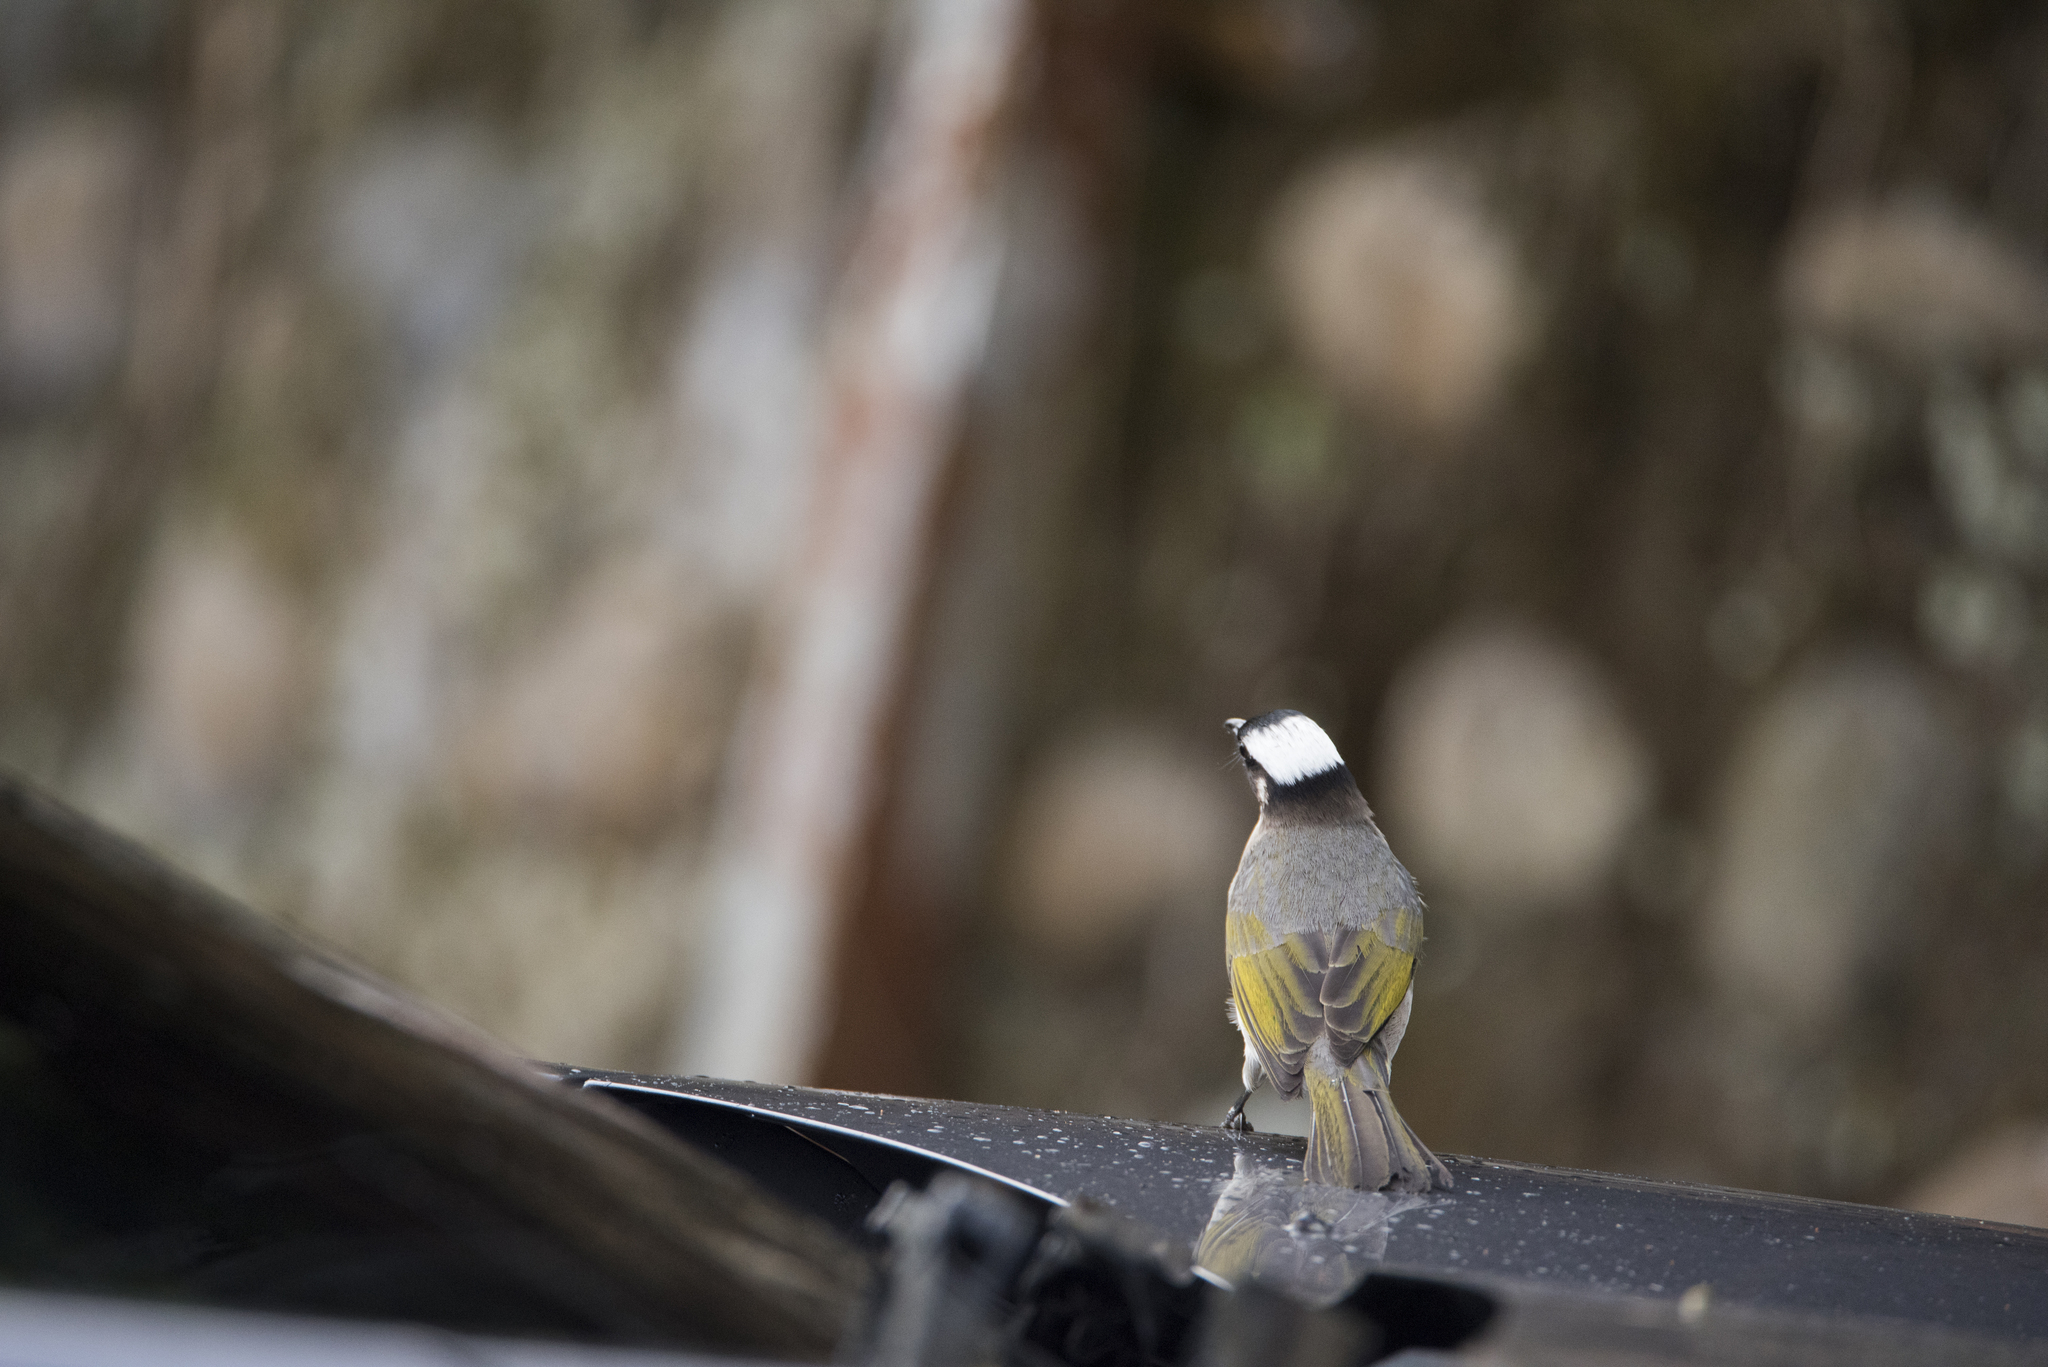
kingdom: Animalia
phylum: Chordata
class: Aves
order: Passeriformes
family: Pycnonotidae
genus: Pycnonotus
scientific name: Pycnonotus sinensis
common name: Light-vented bulbul
